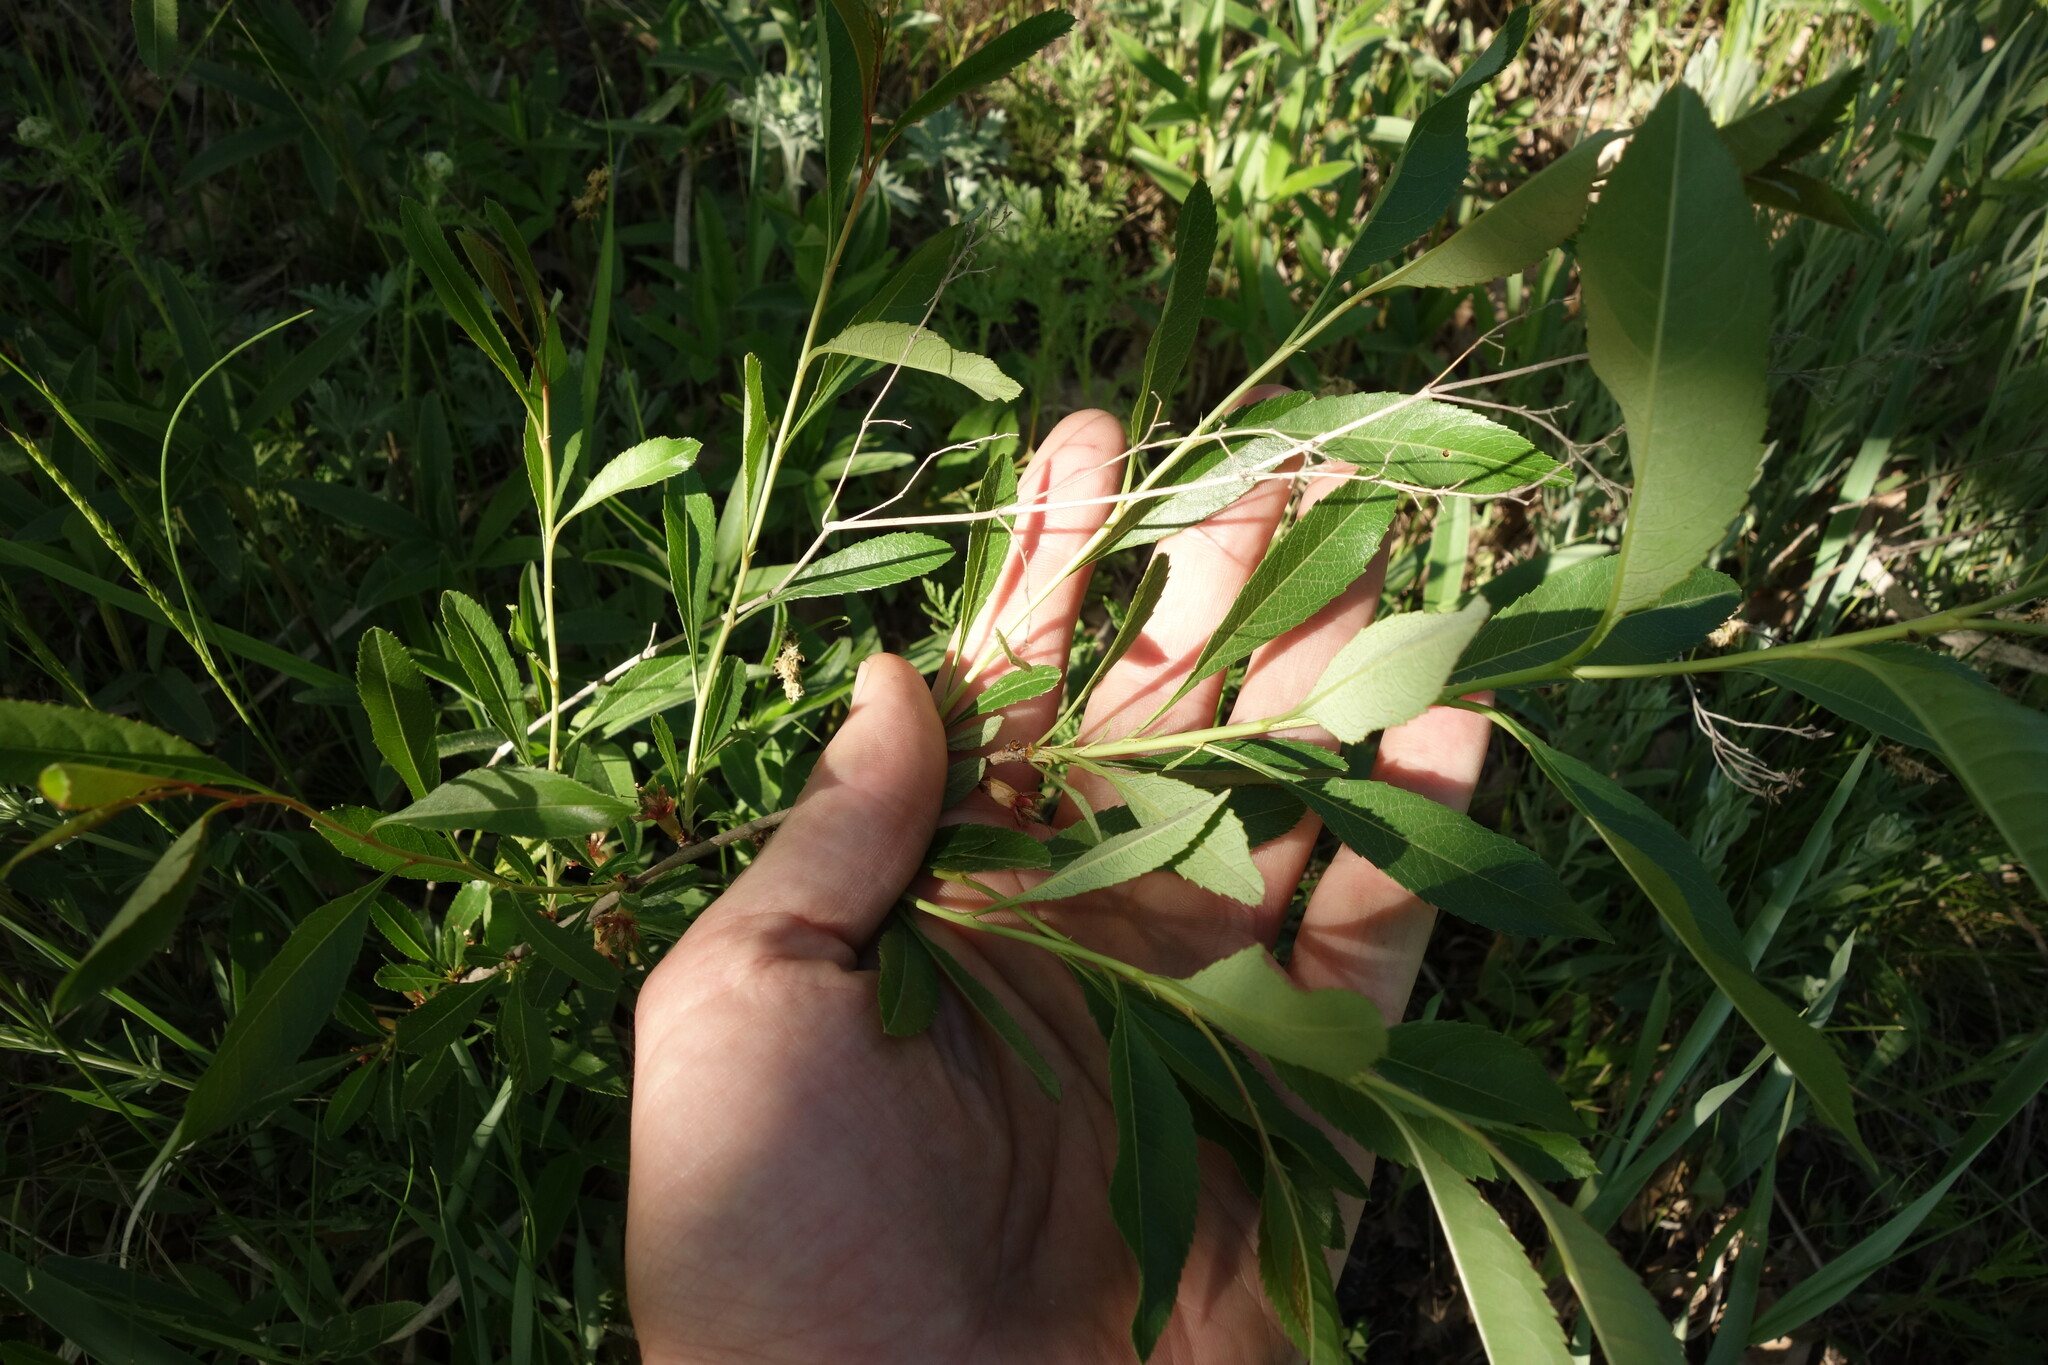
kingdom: Plantae
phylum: Tracheophyta
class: Magnoliopsida
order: Rosales
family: Rosaceae
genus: Prunus
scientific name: Prunus tenella
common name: Dwarf russian almond
